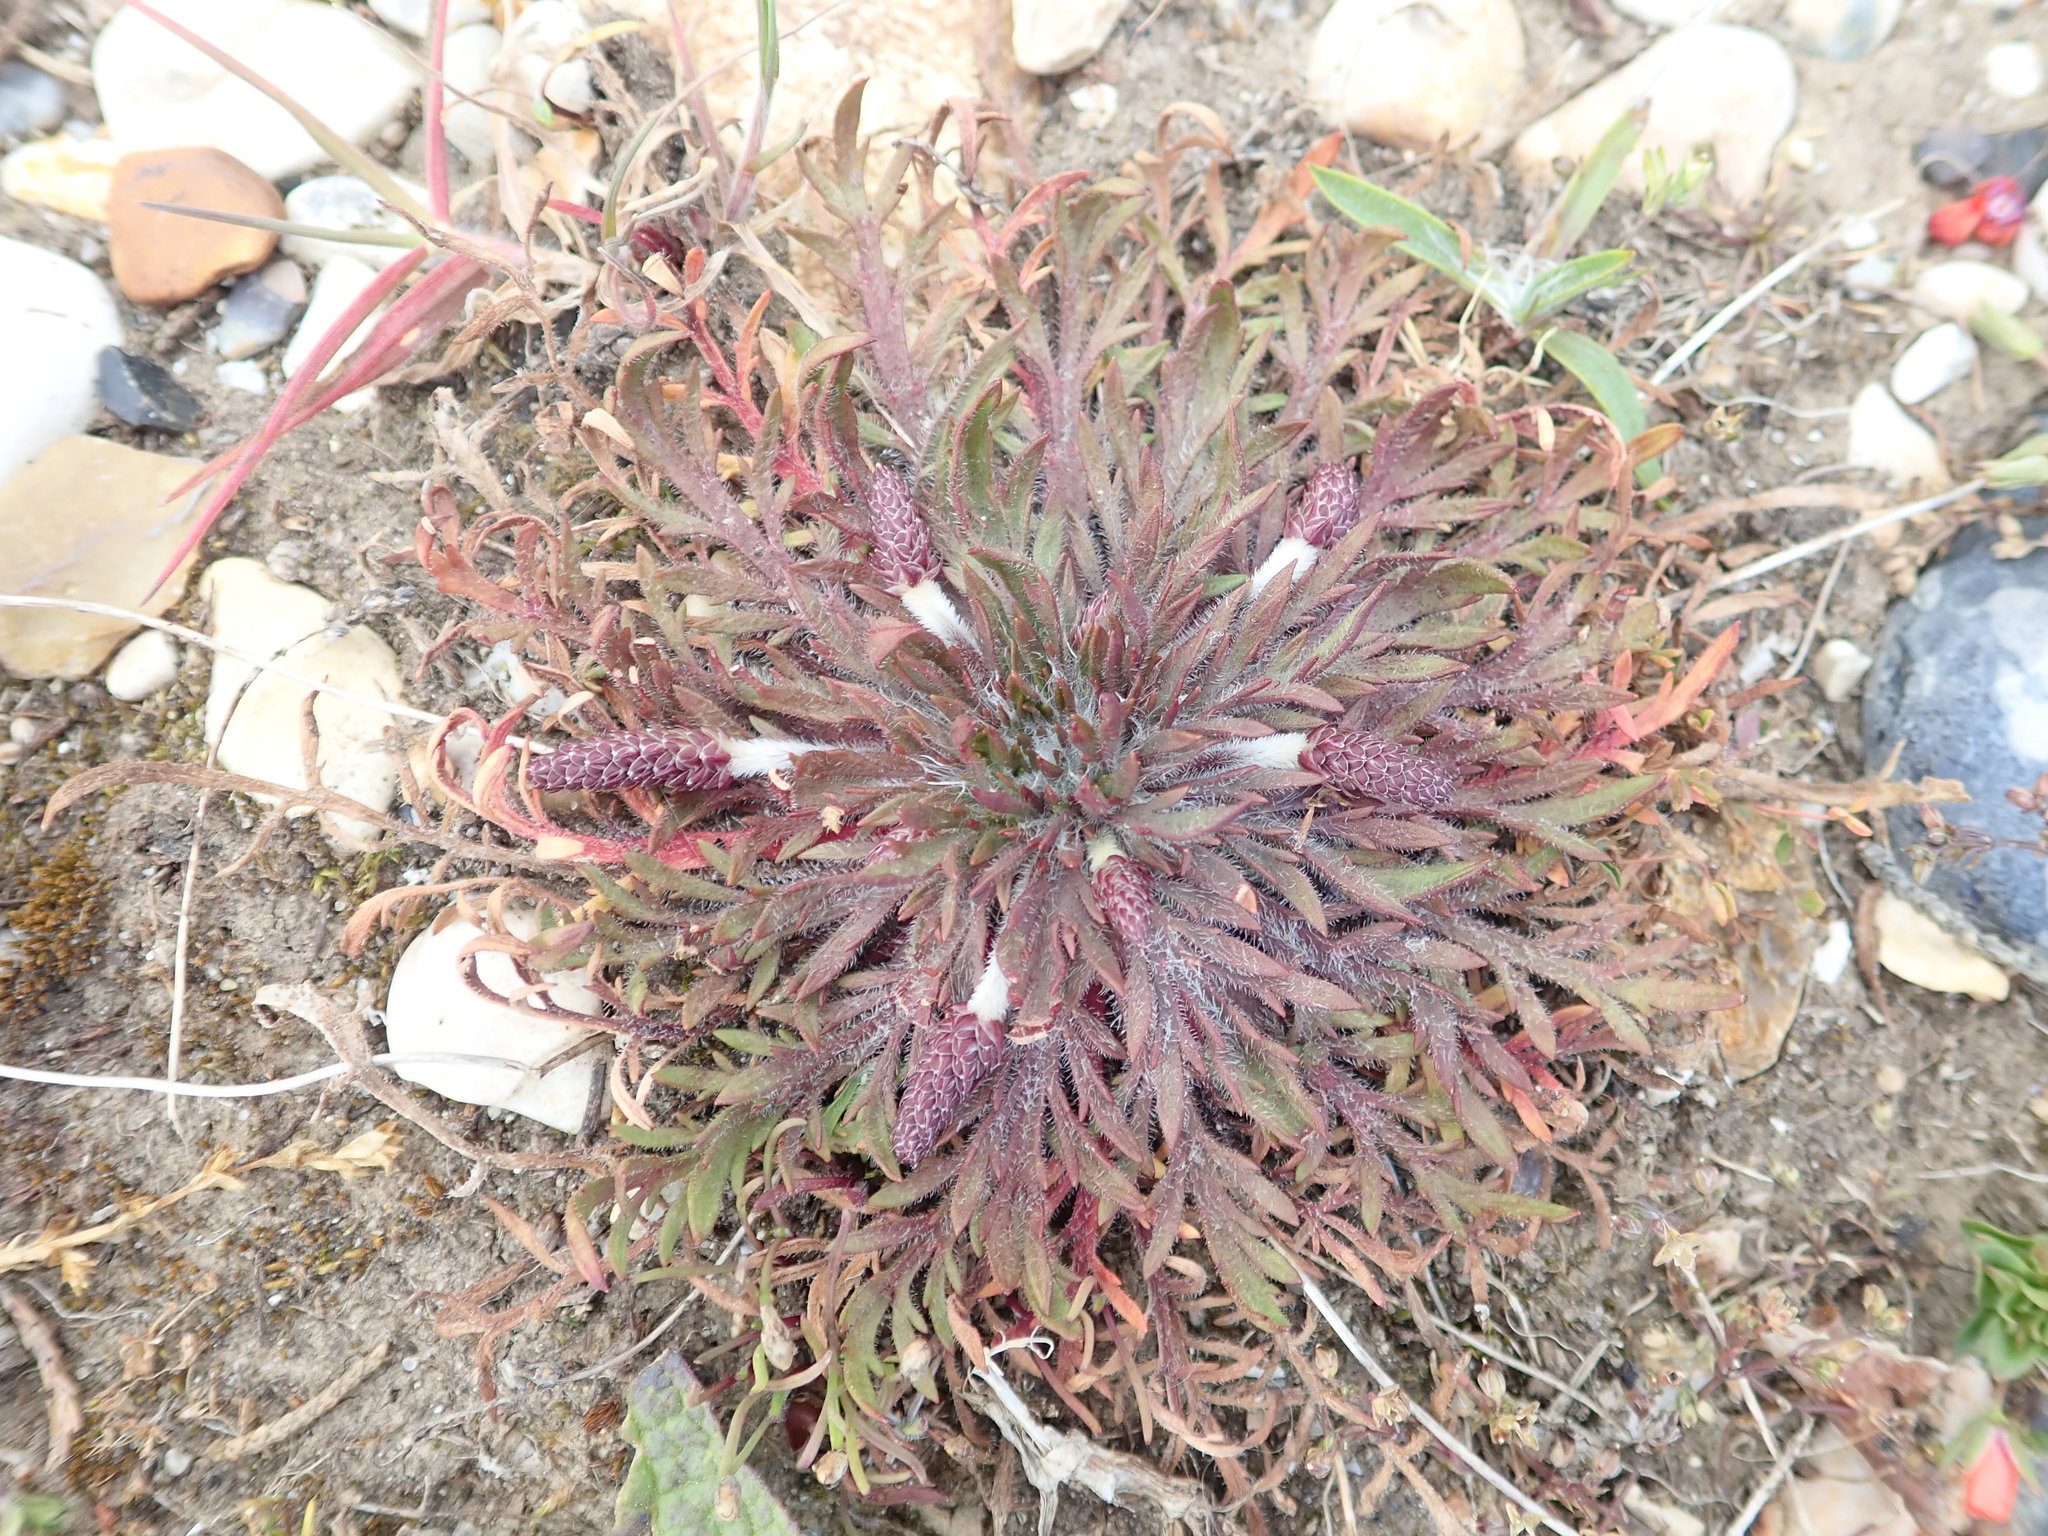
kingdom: Plantae
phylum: Tracheophyta
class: Magnoliopsida
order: Lamiales
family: Plantaginaceae
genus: Plantago
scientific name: Plantago coronopus
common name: Buck's-horn plantain
